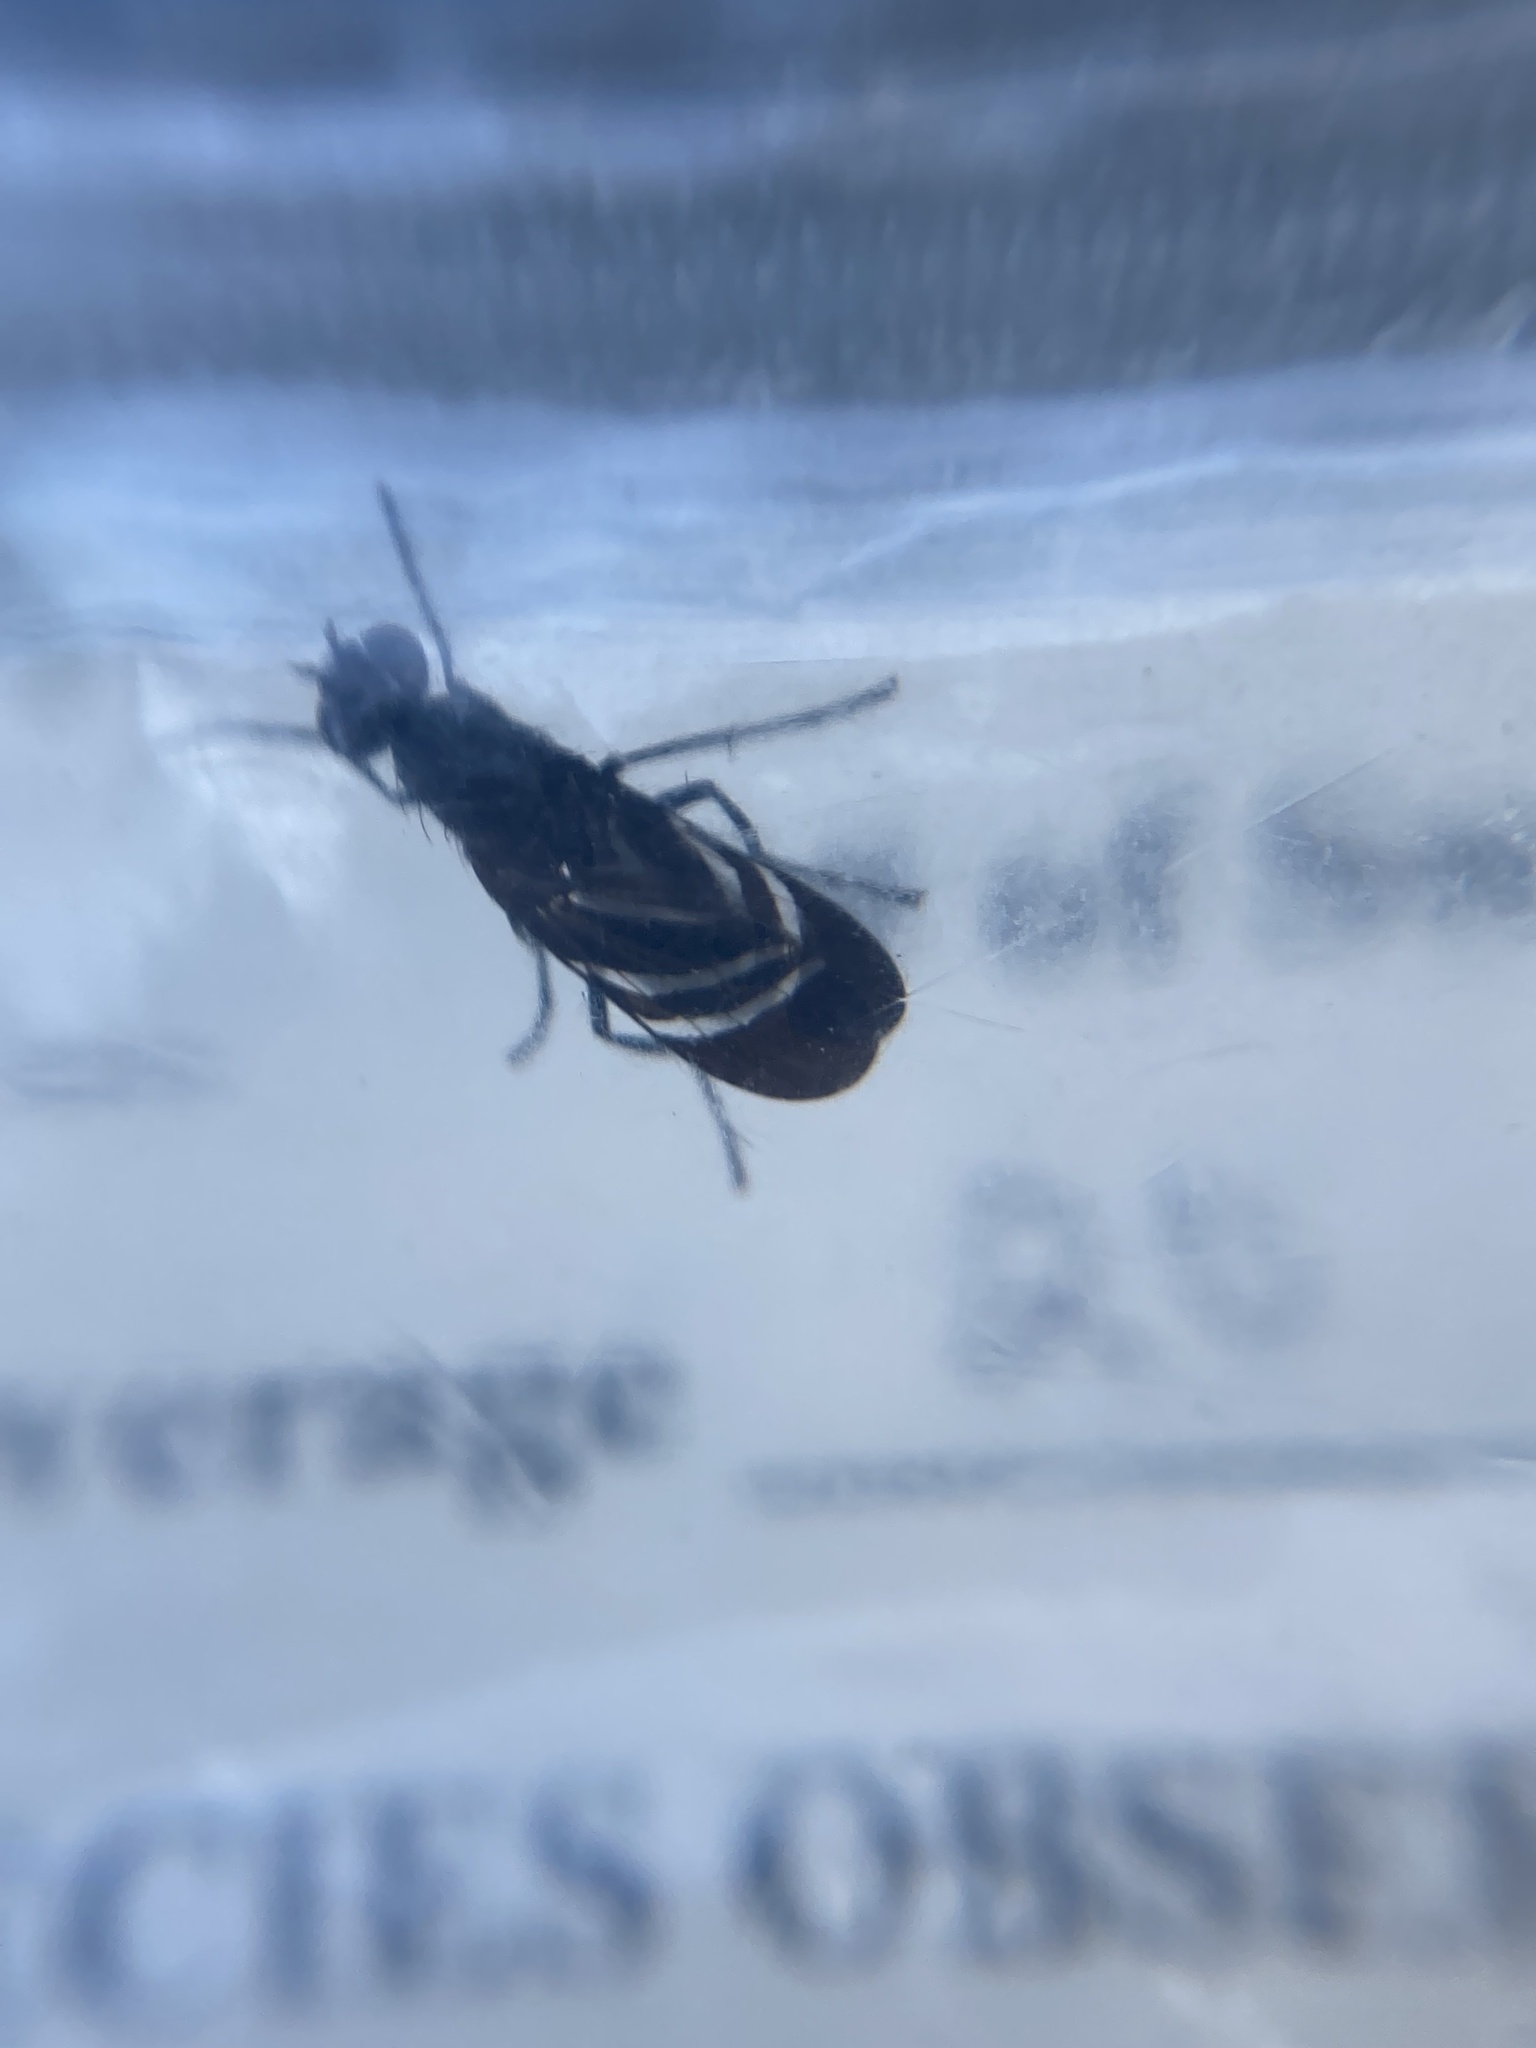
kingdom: Animalia
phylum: Arthropoda
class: Insecta
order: Diptera
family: Ulidiidae
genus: Tritoxa
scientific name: Tritoxa flexa
